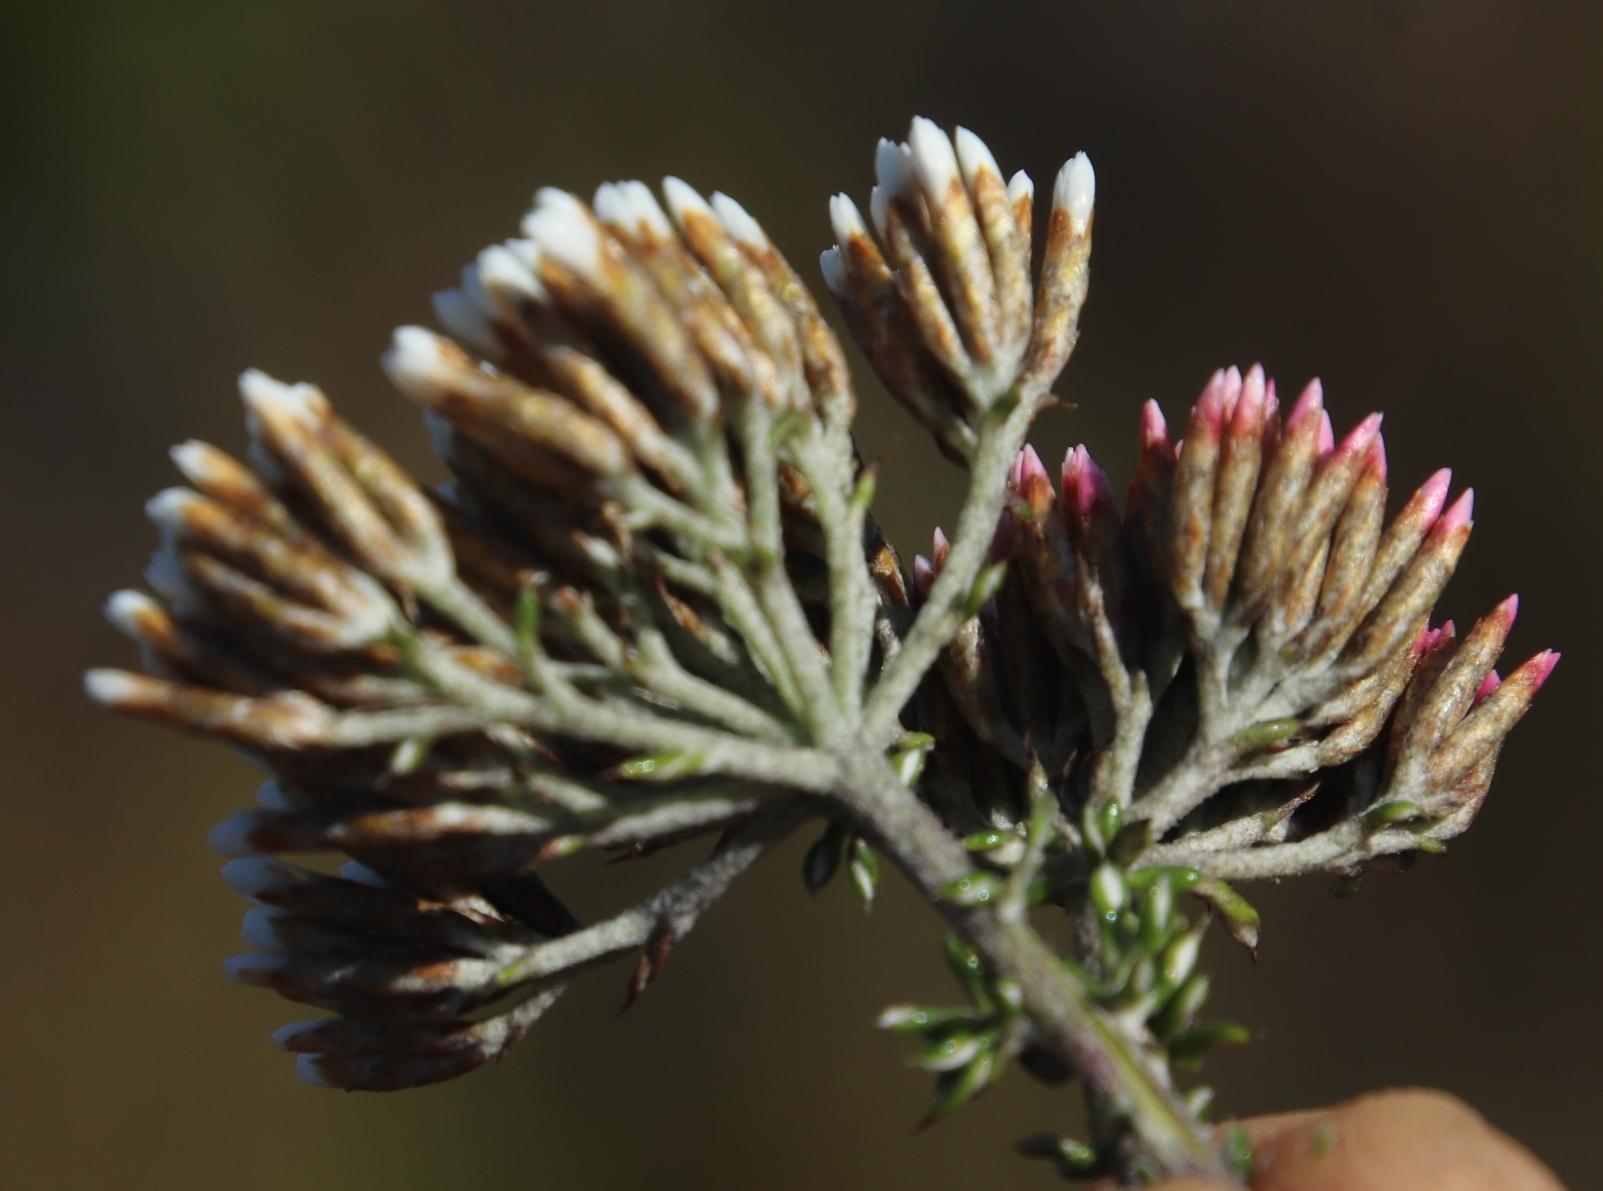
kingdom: Plantae
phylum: Tracheophyta
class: Magnoliopsida
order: Asterales
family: Asteraceae
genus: Metalasia
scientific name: Metalasia densa
